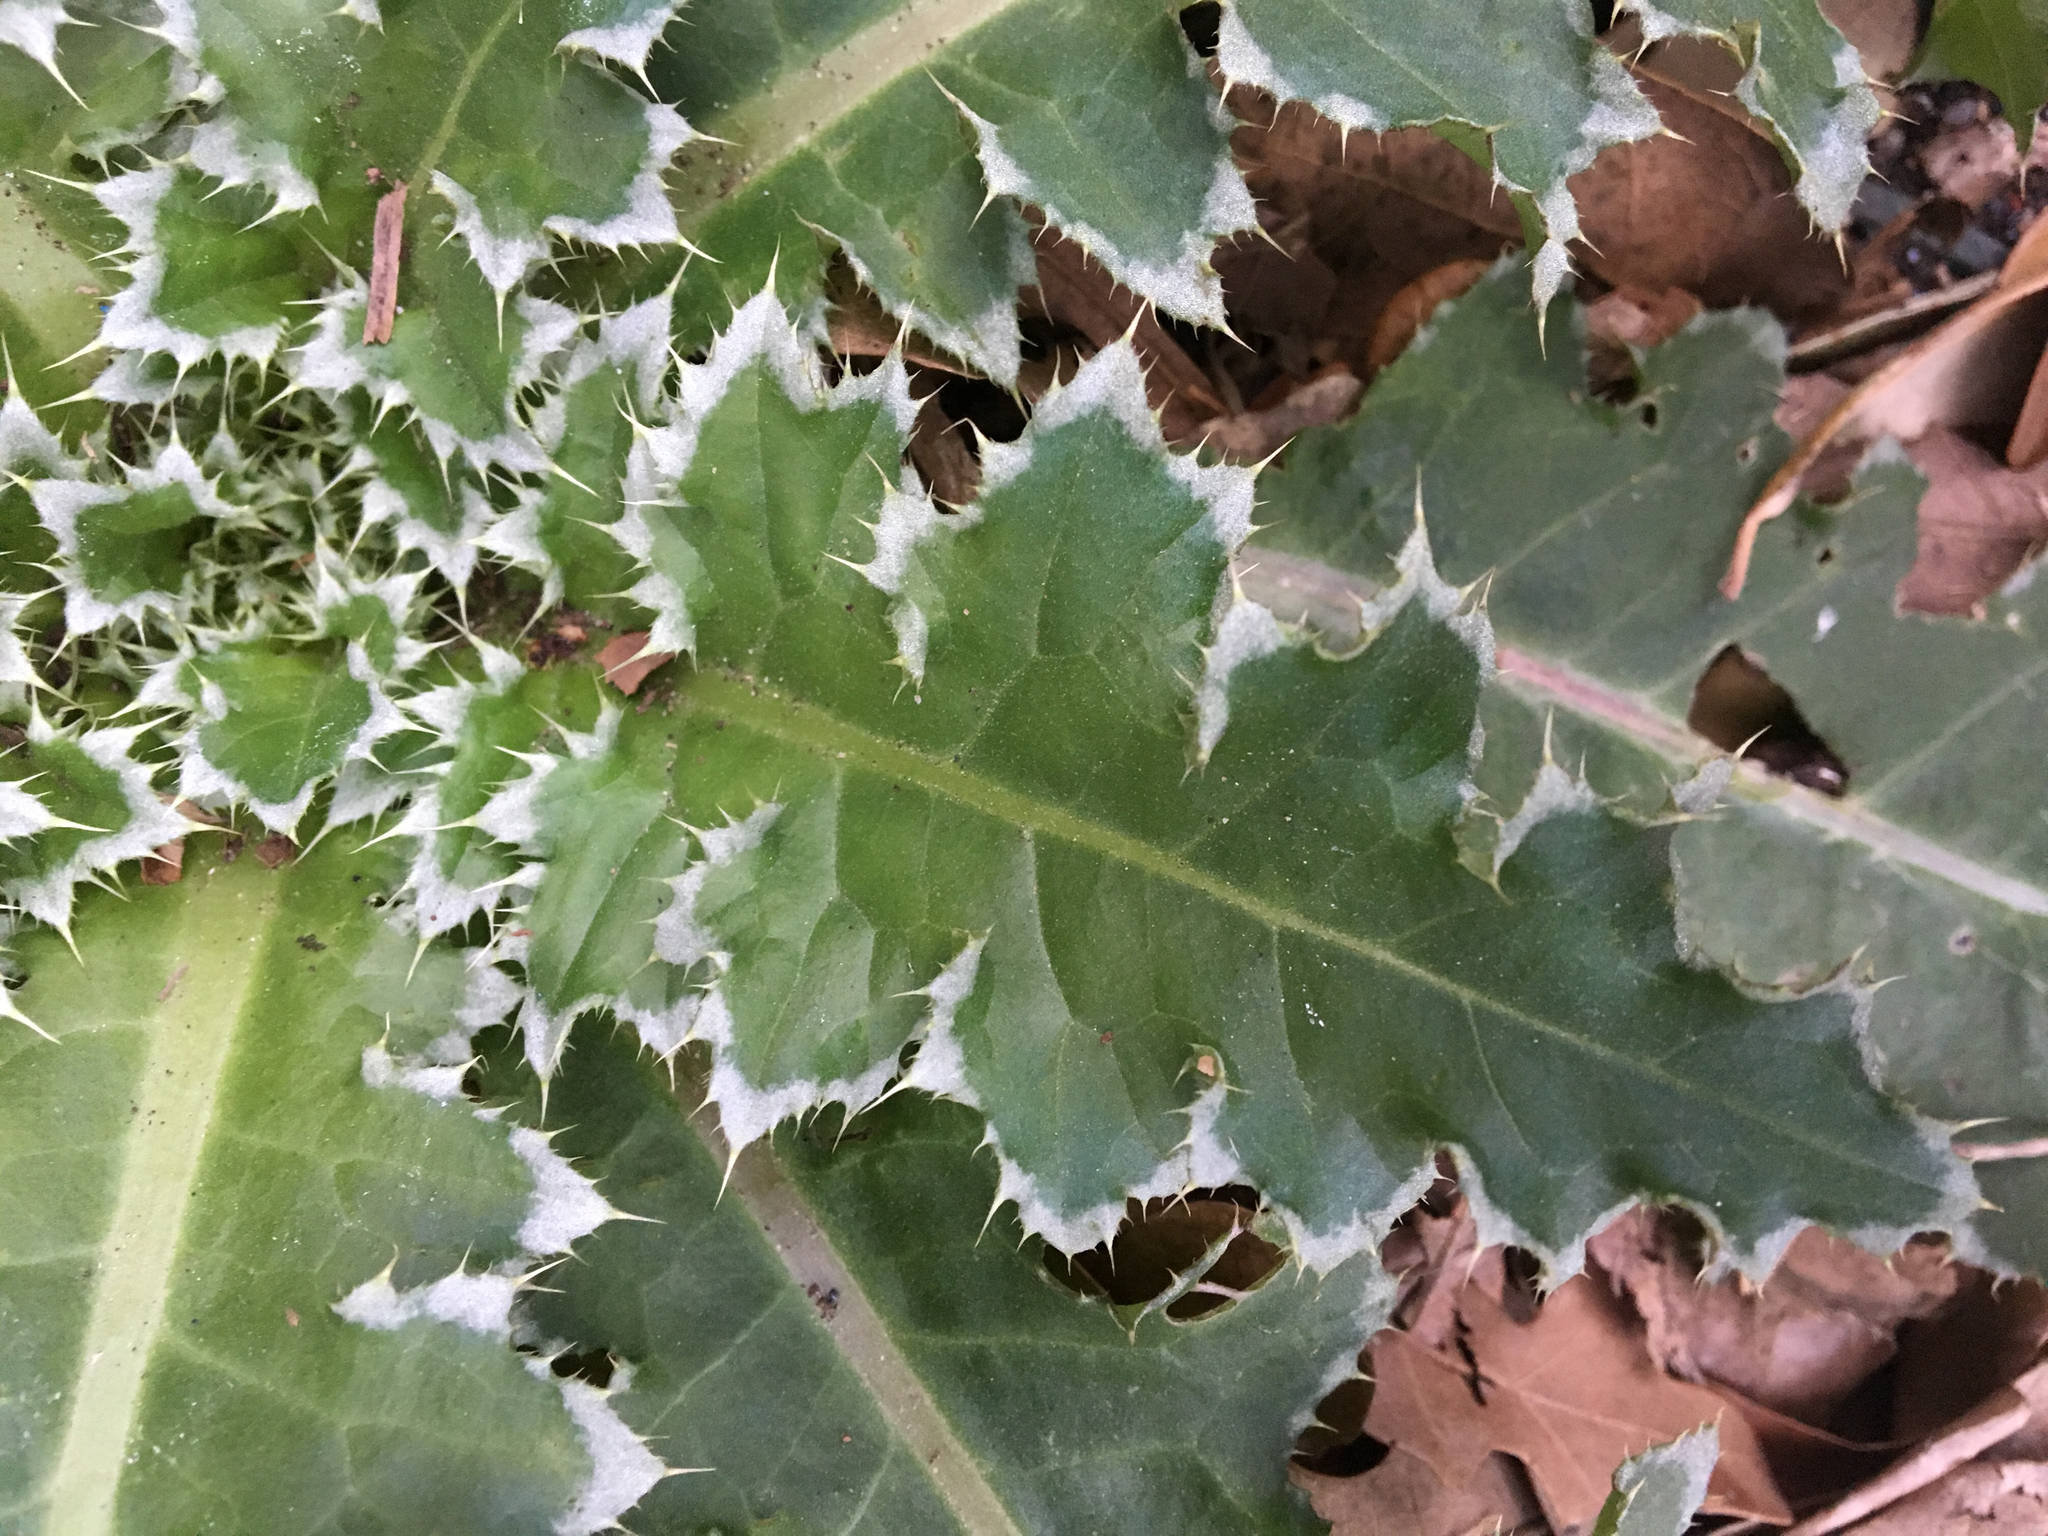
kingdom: Plantae
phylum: Tracheophyta
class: Magnoliopsida
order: Asterales
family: Asteraceae
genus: Carduus
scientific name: Carduus nutans
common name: Musk thistle
